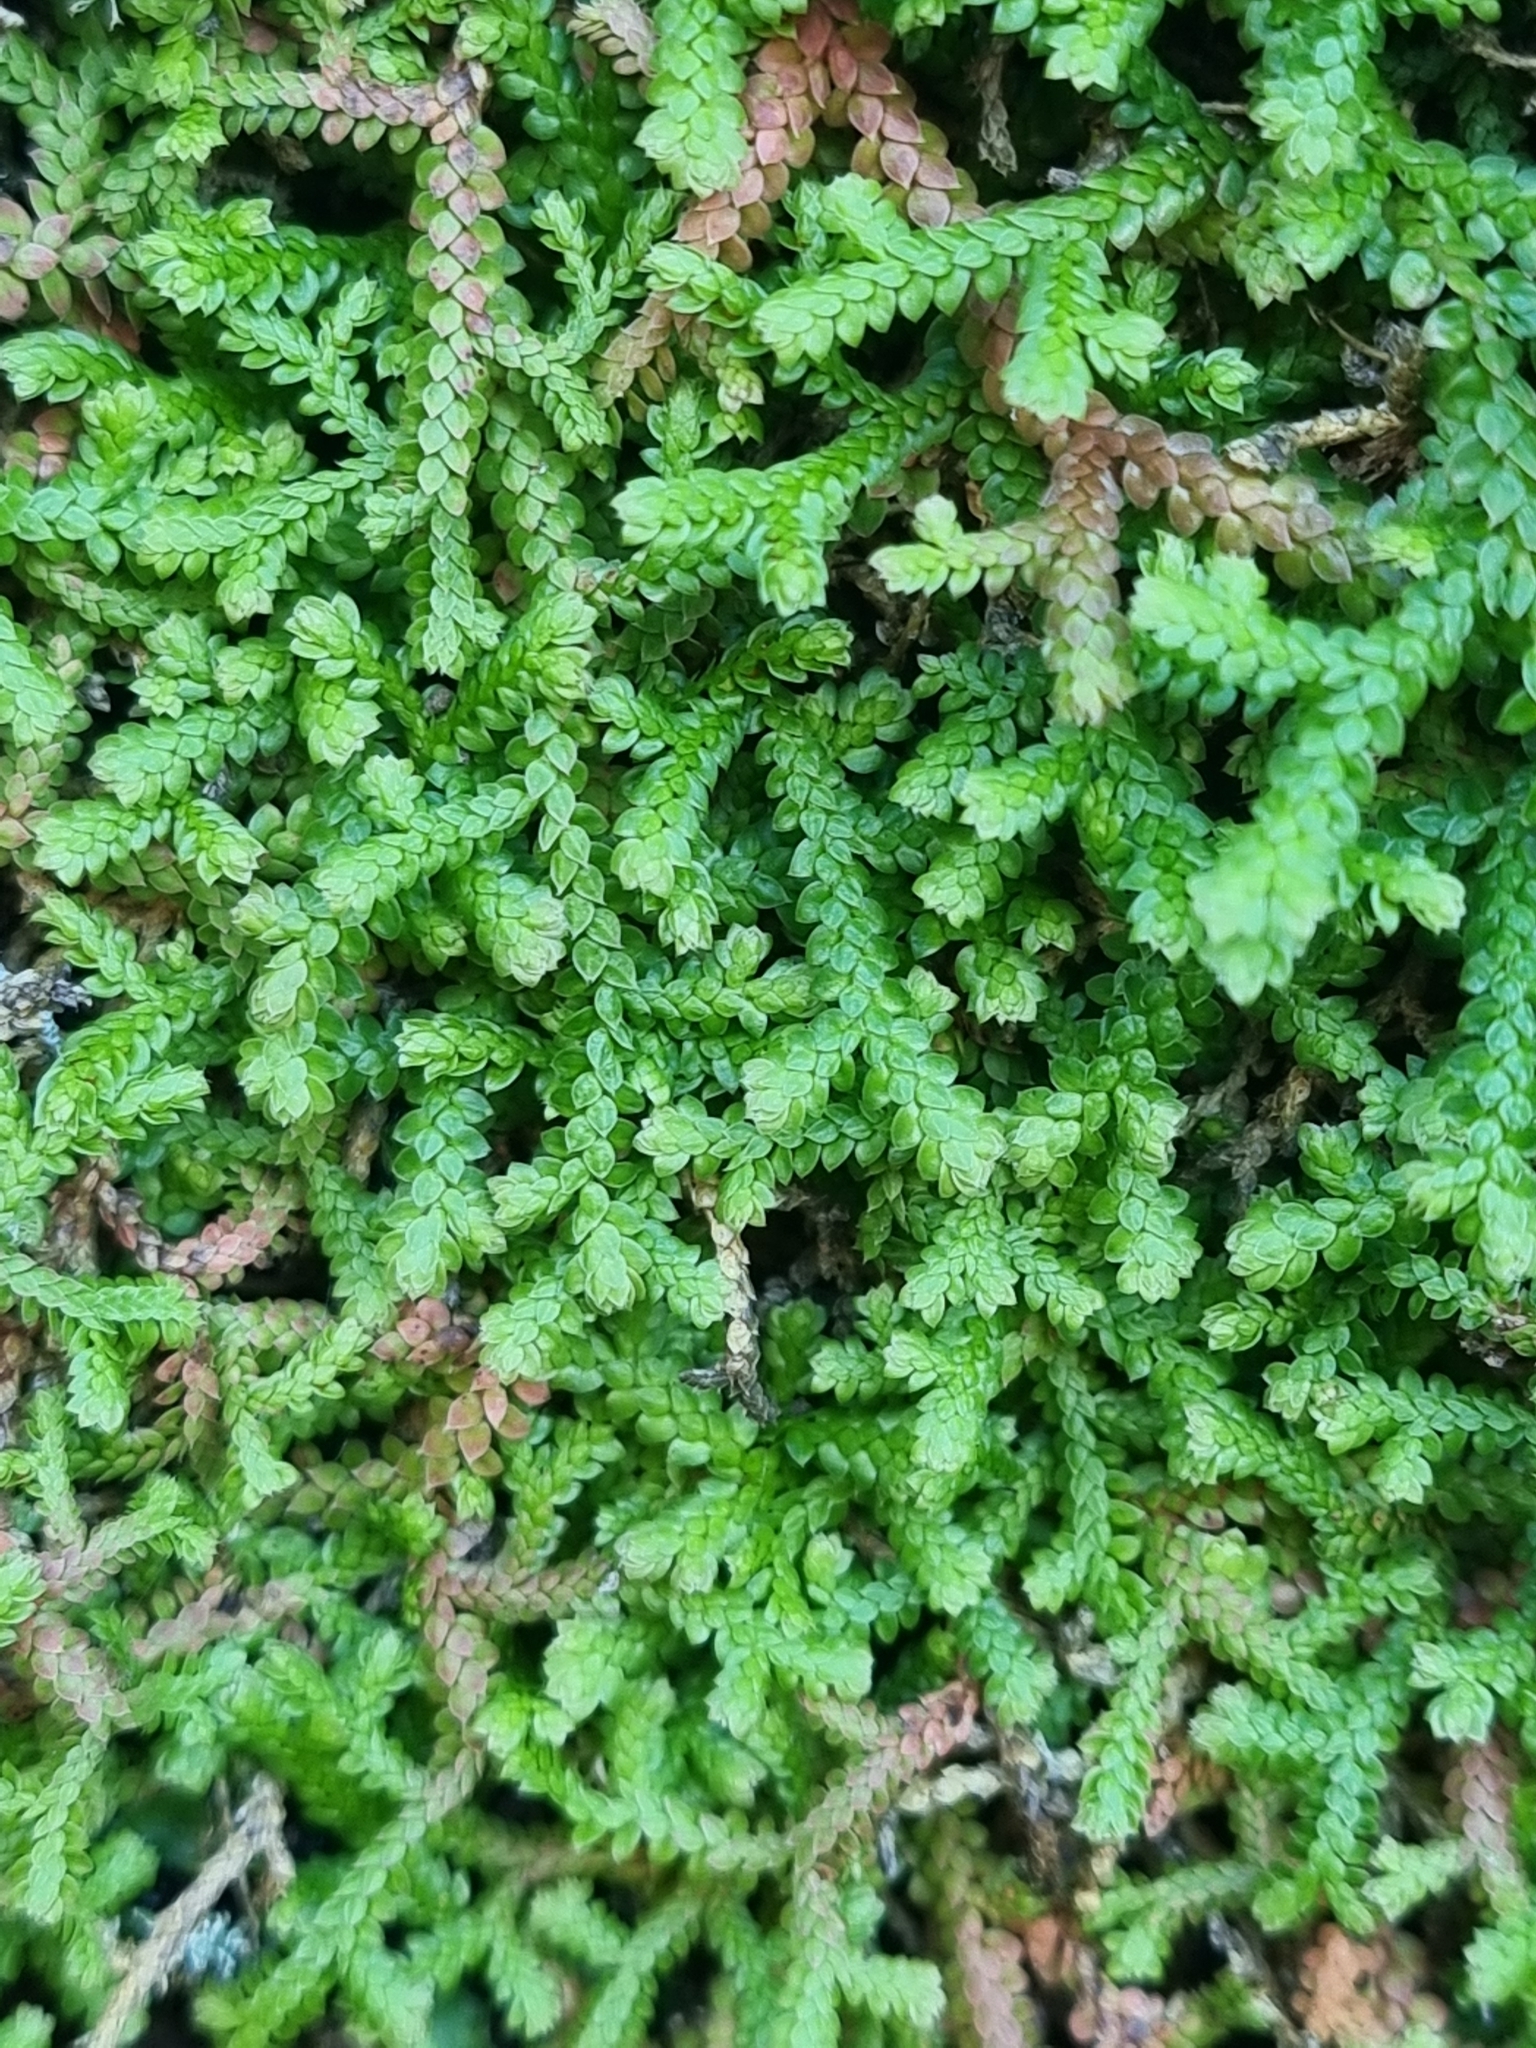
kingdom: Plantae
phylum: Tracheophyta
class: Lycopodiopsida
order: Selaginellales
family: Selaginellaceae
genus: Selaginella
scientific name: Selaginella denticulata
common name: Toothed-leaved clubmoss
